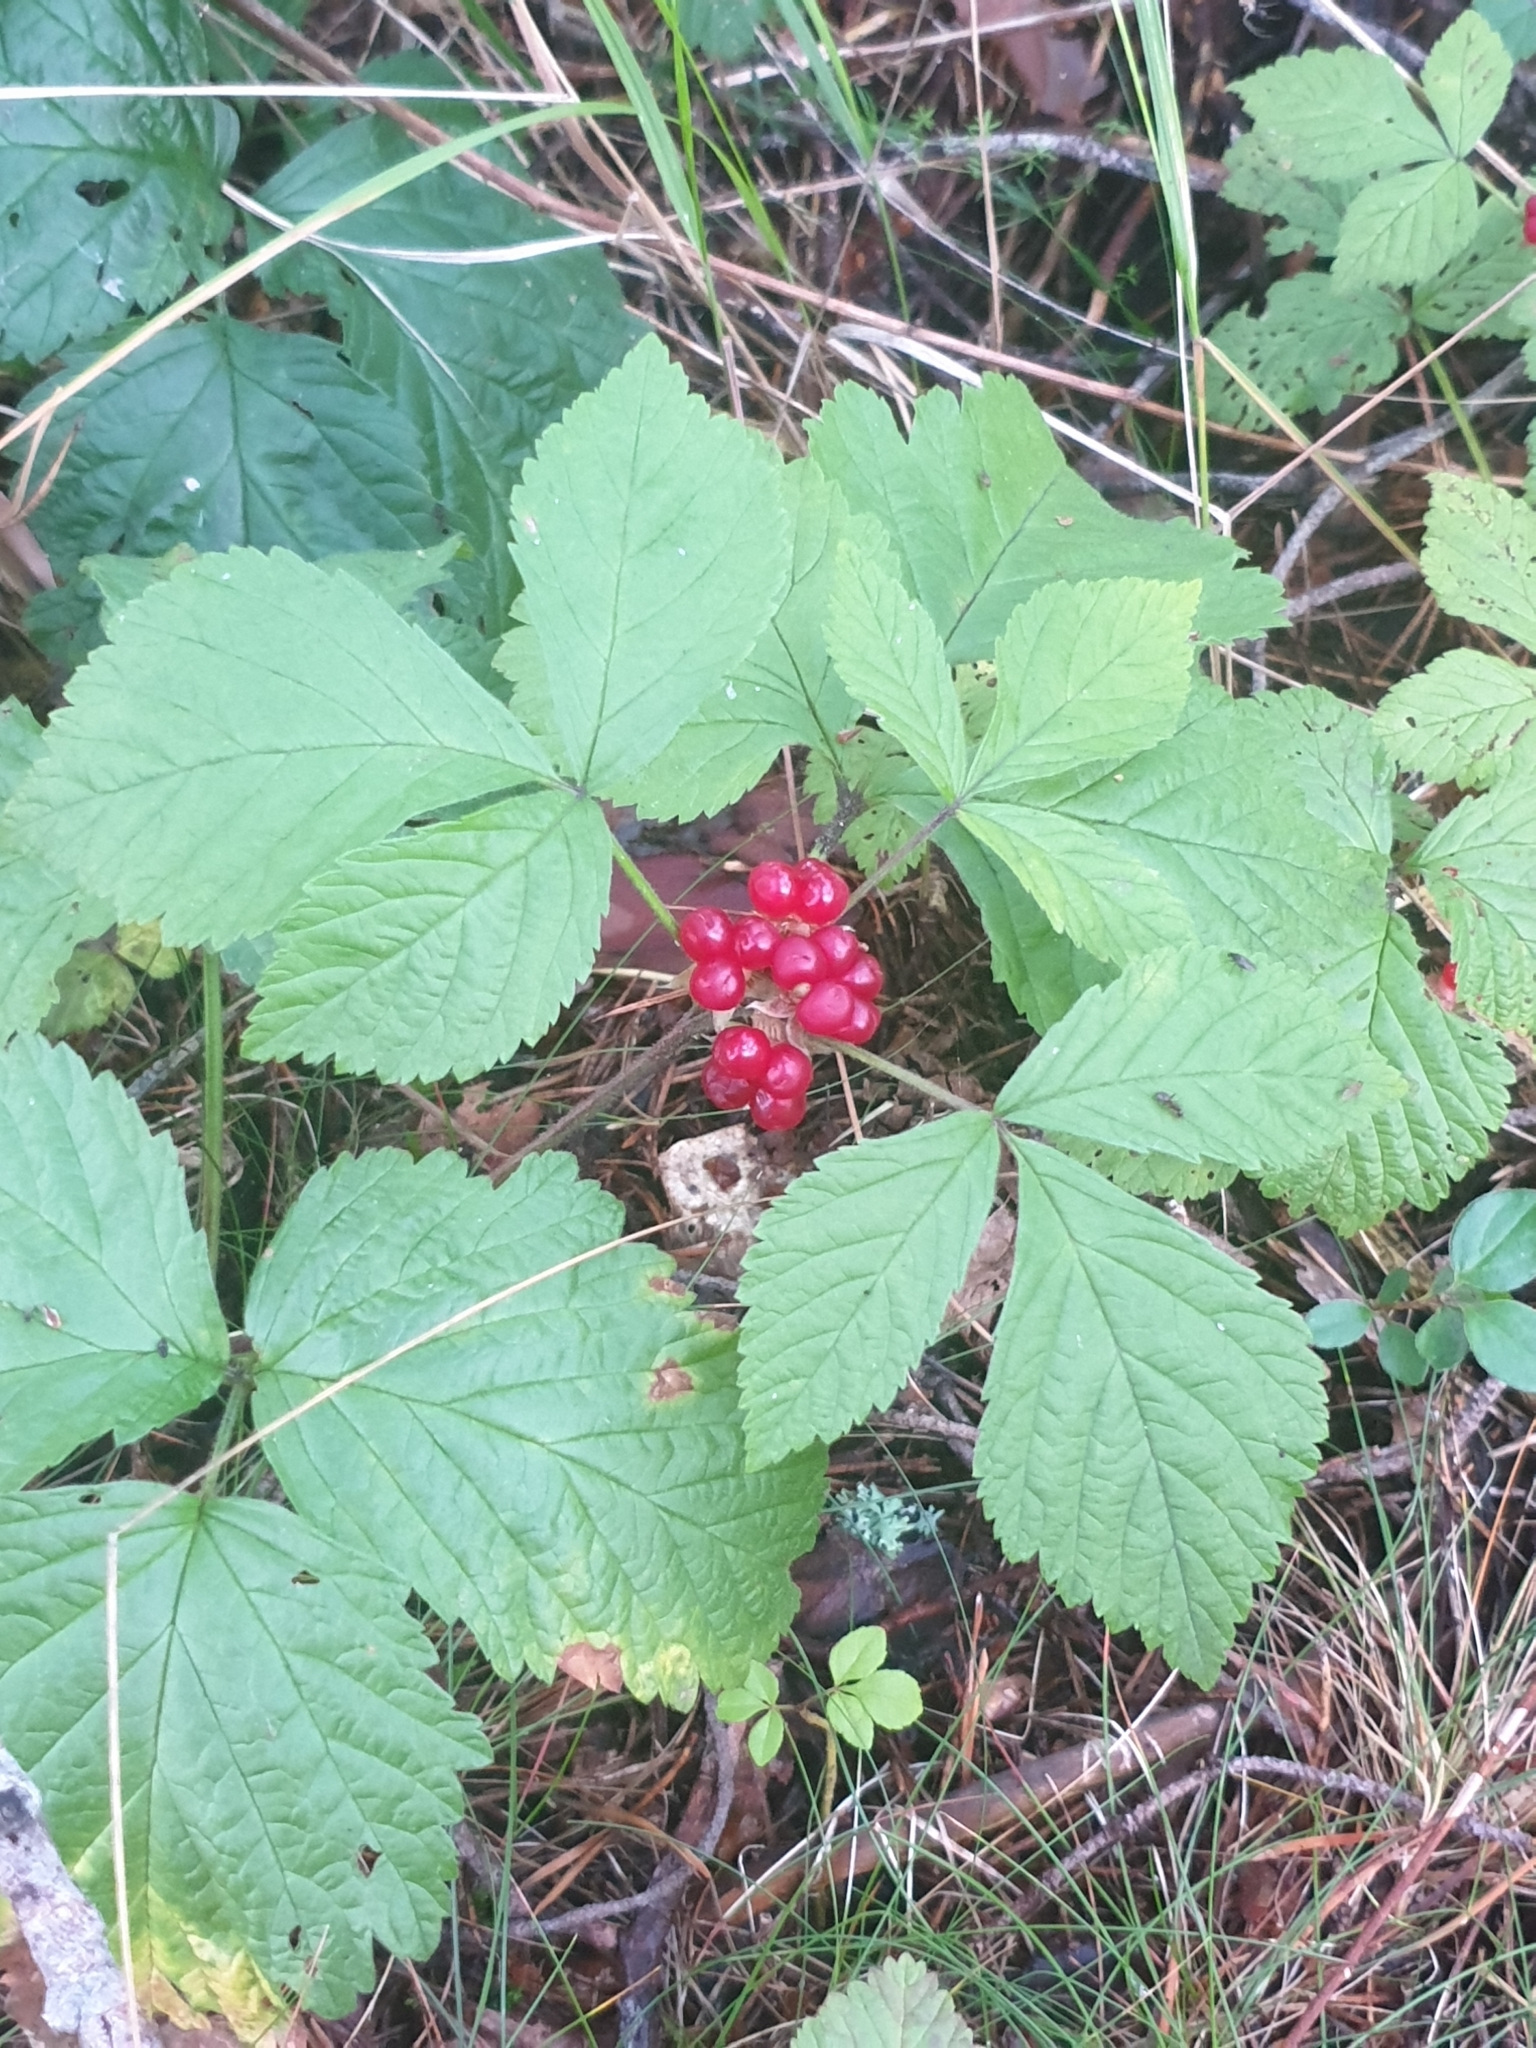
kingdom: Plantae
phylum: Tracheophyta
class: Magnoliopsida
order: Rosales
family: Rosaceae
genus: Rubus
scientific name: Rubus saxatilis
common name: Stone bramble
